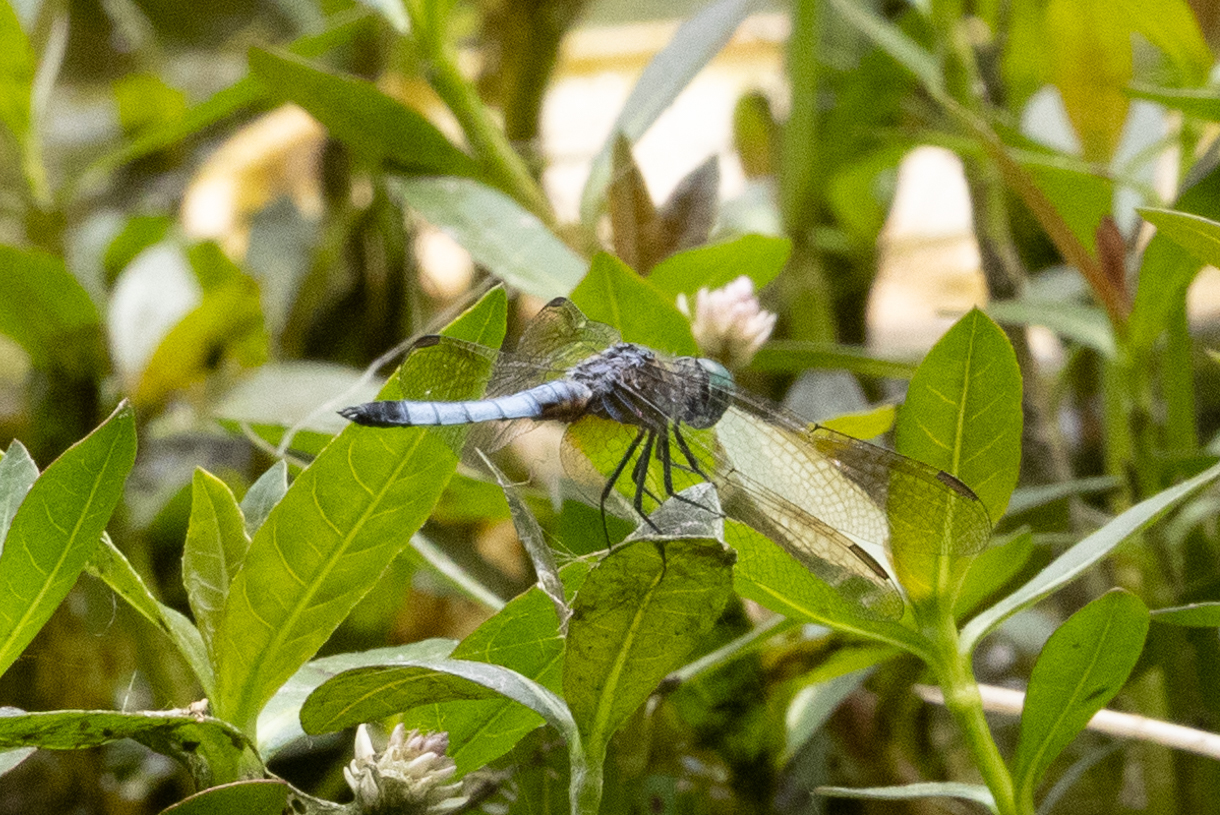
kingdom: Animalia
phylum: Arthropoda
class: Insecta
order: Odonata
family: Libellulidae
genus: Pachydiplax
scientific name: Pachydiplax longipennis
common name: Blue dasher
